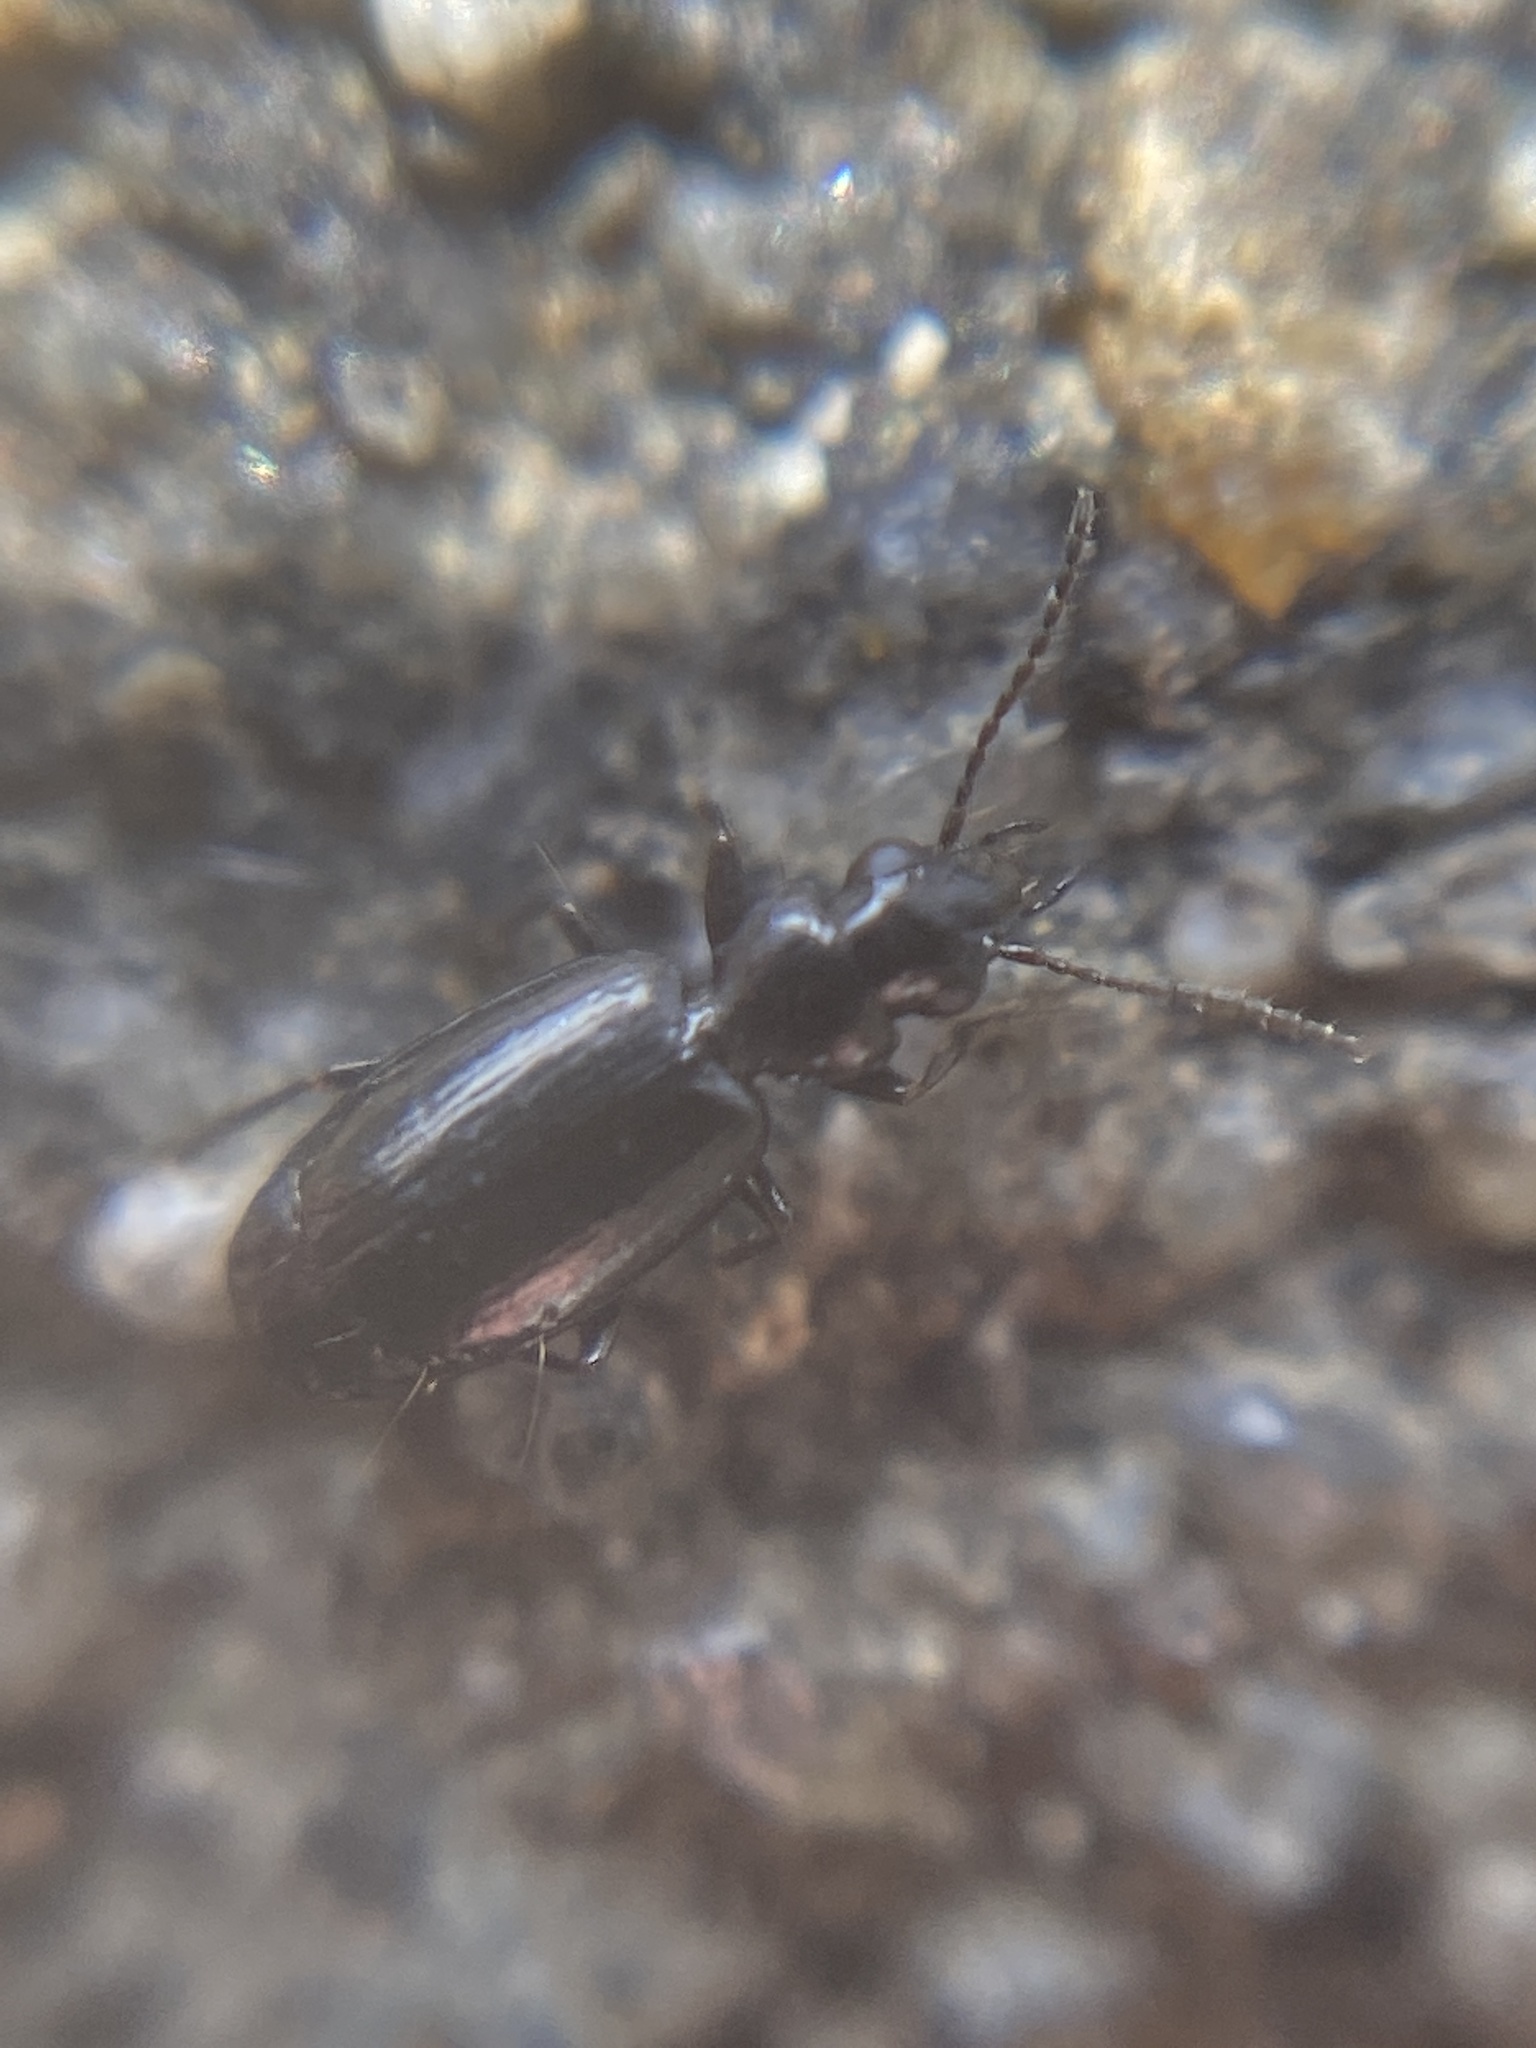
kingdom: Animalia
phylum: Arthropoda
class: Insecta
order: Coleoptera
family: Carabidae
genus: Syntomus
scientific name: Syntomus truncatellus
